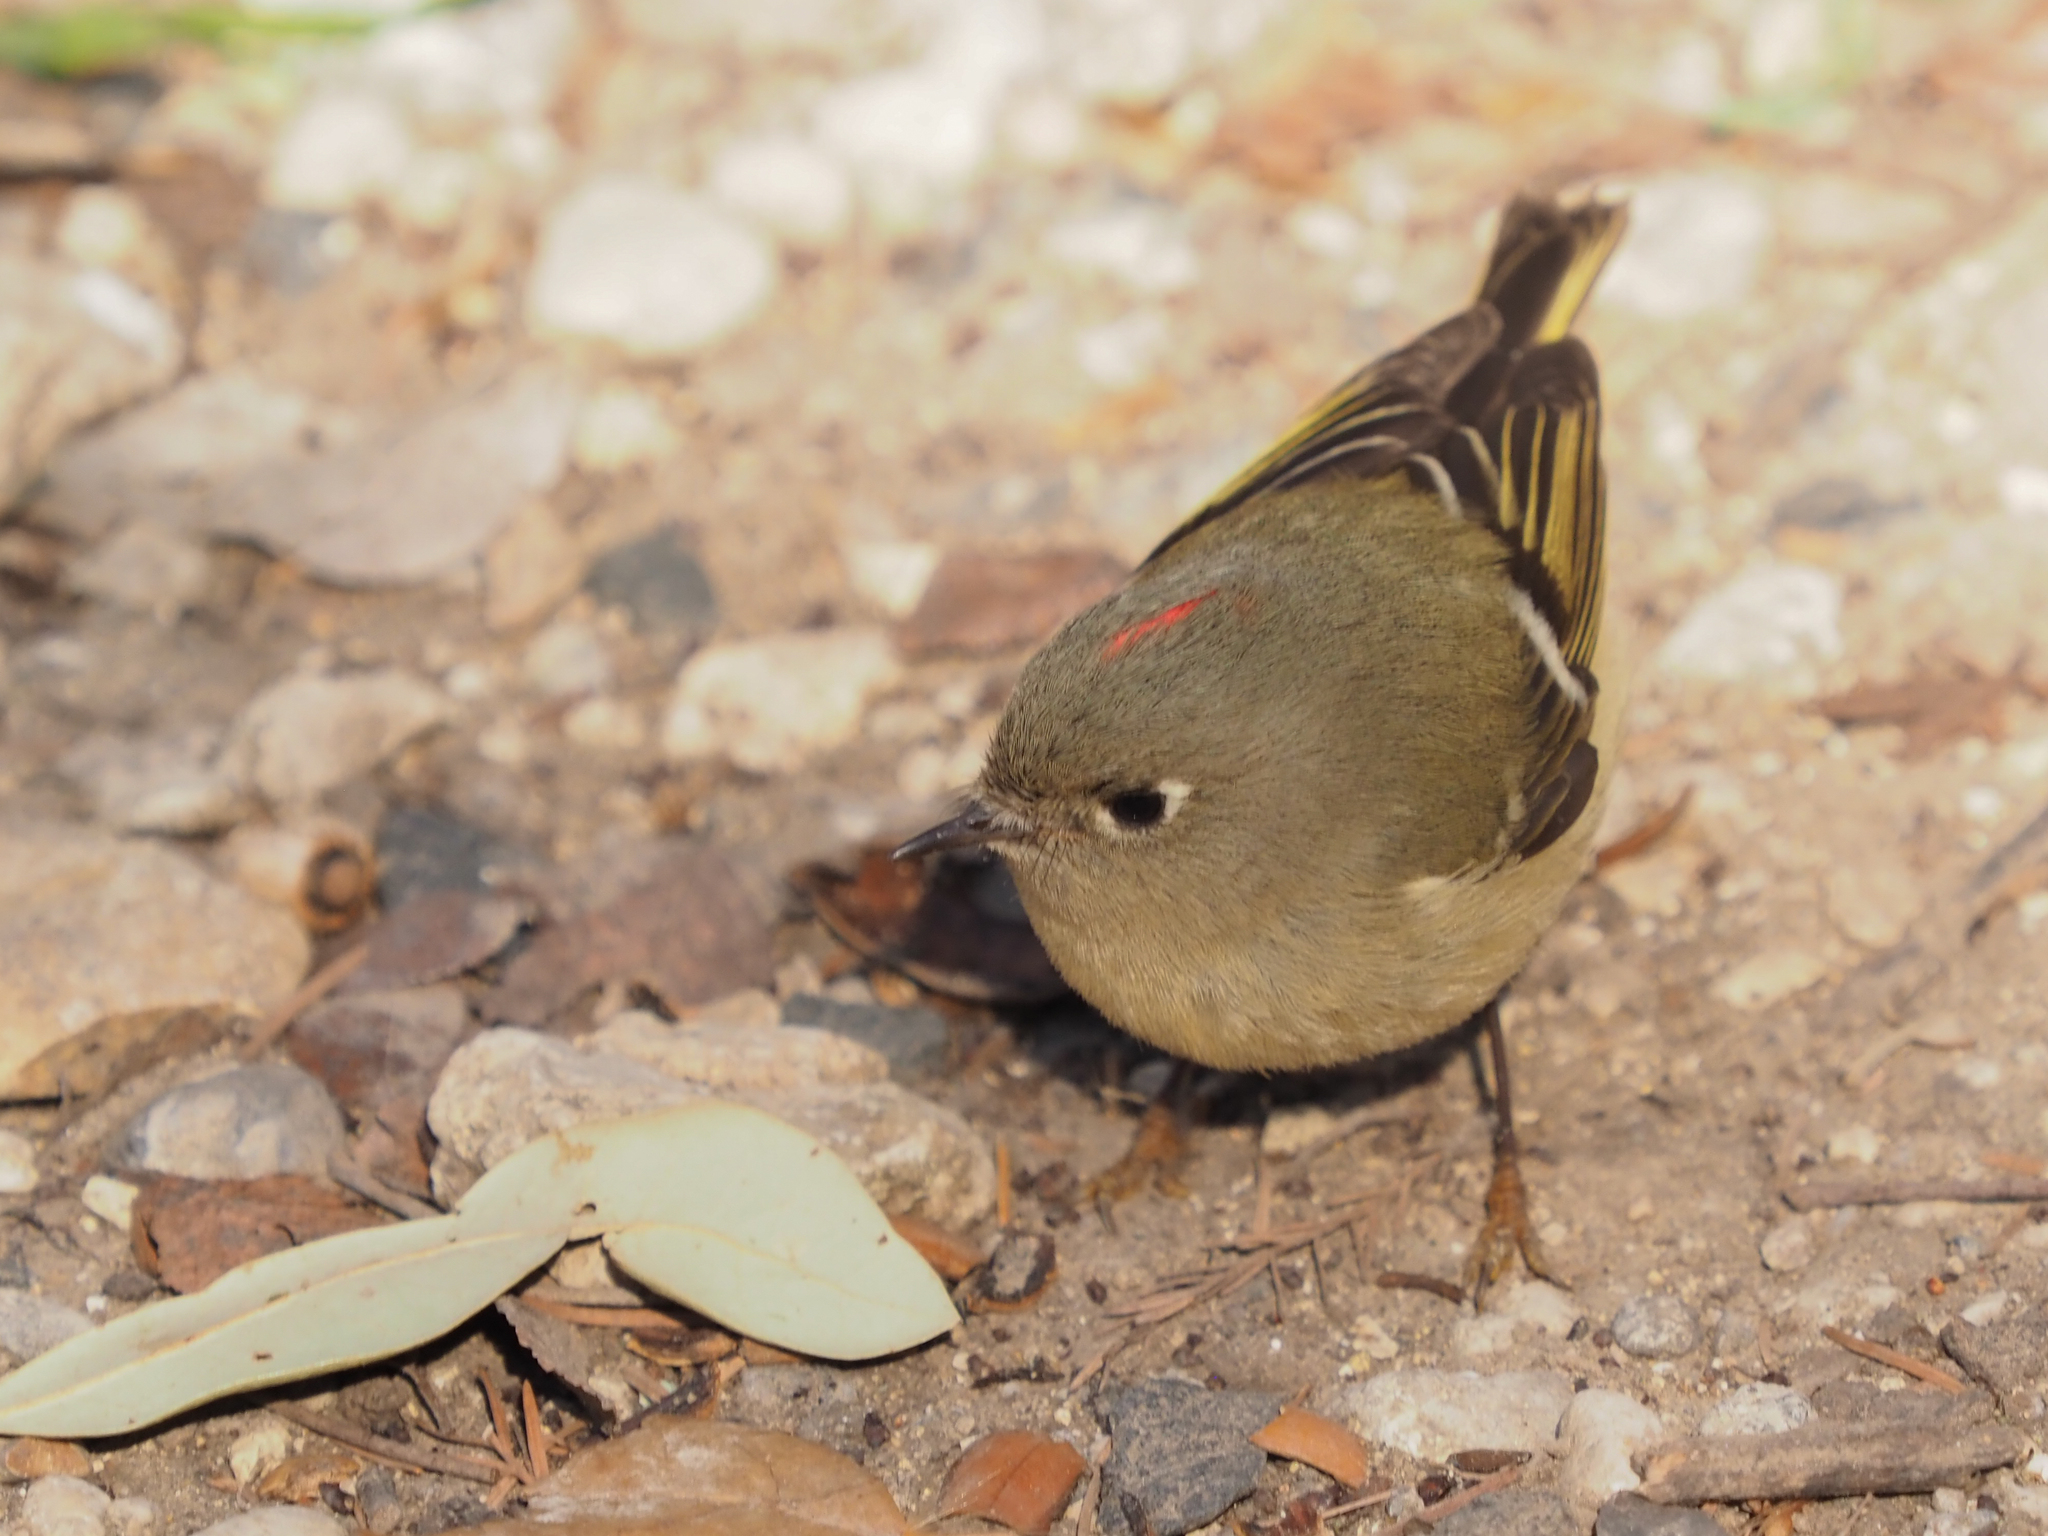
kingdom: Animalia
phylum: Chordata
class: Aves
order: Passeriformes
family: Regulidae
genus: Regulus
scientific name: Regulus calendula
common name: Ruby-crowned kinglet
